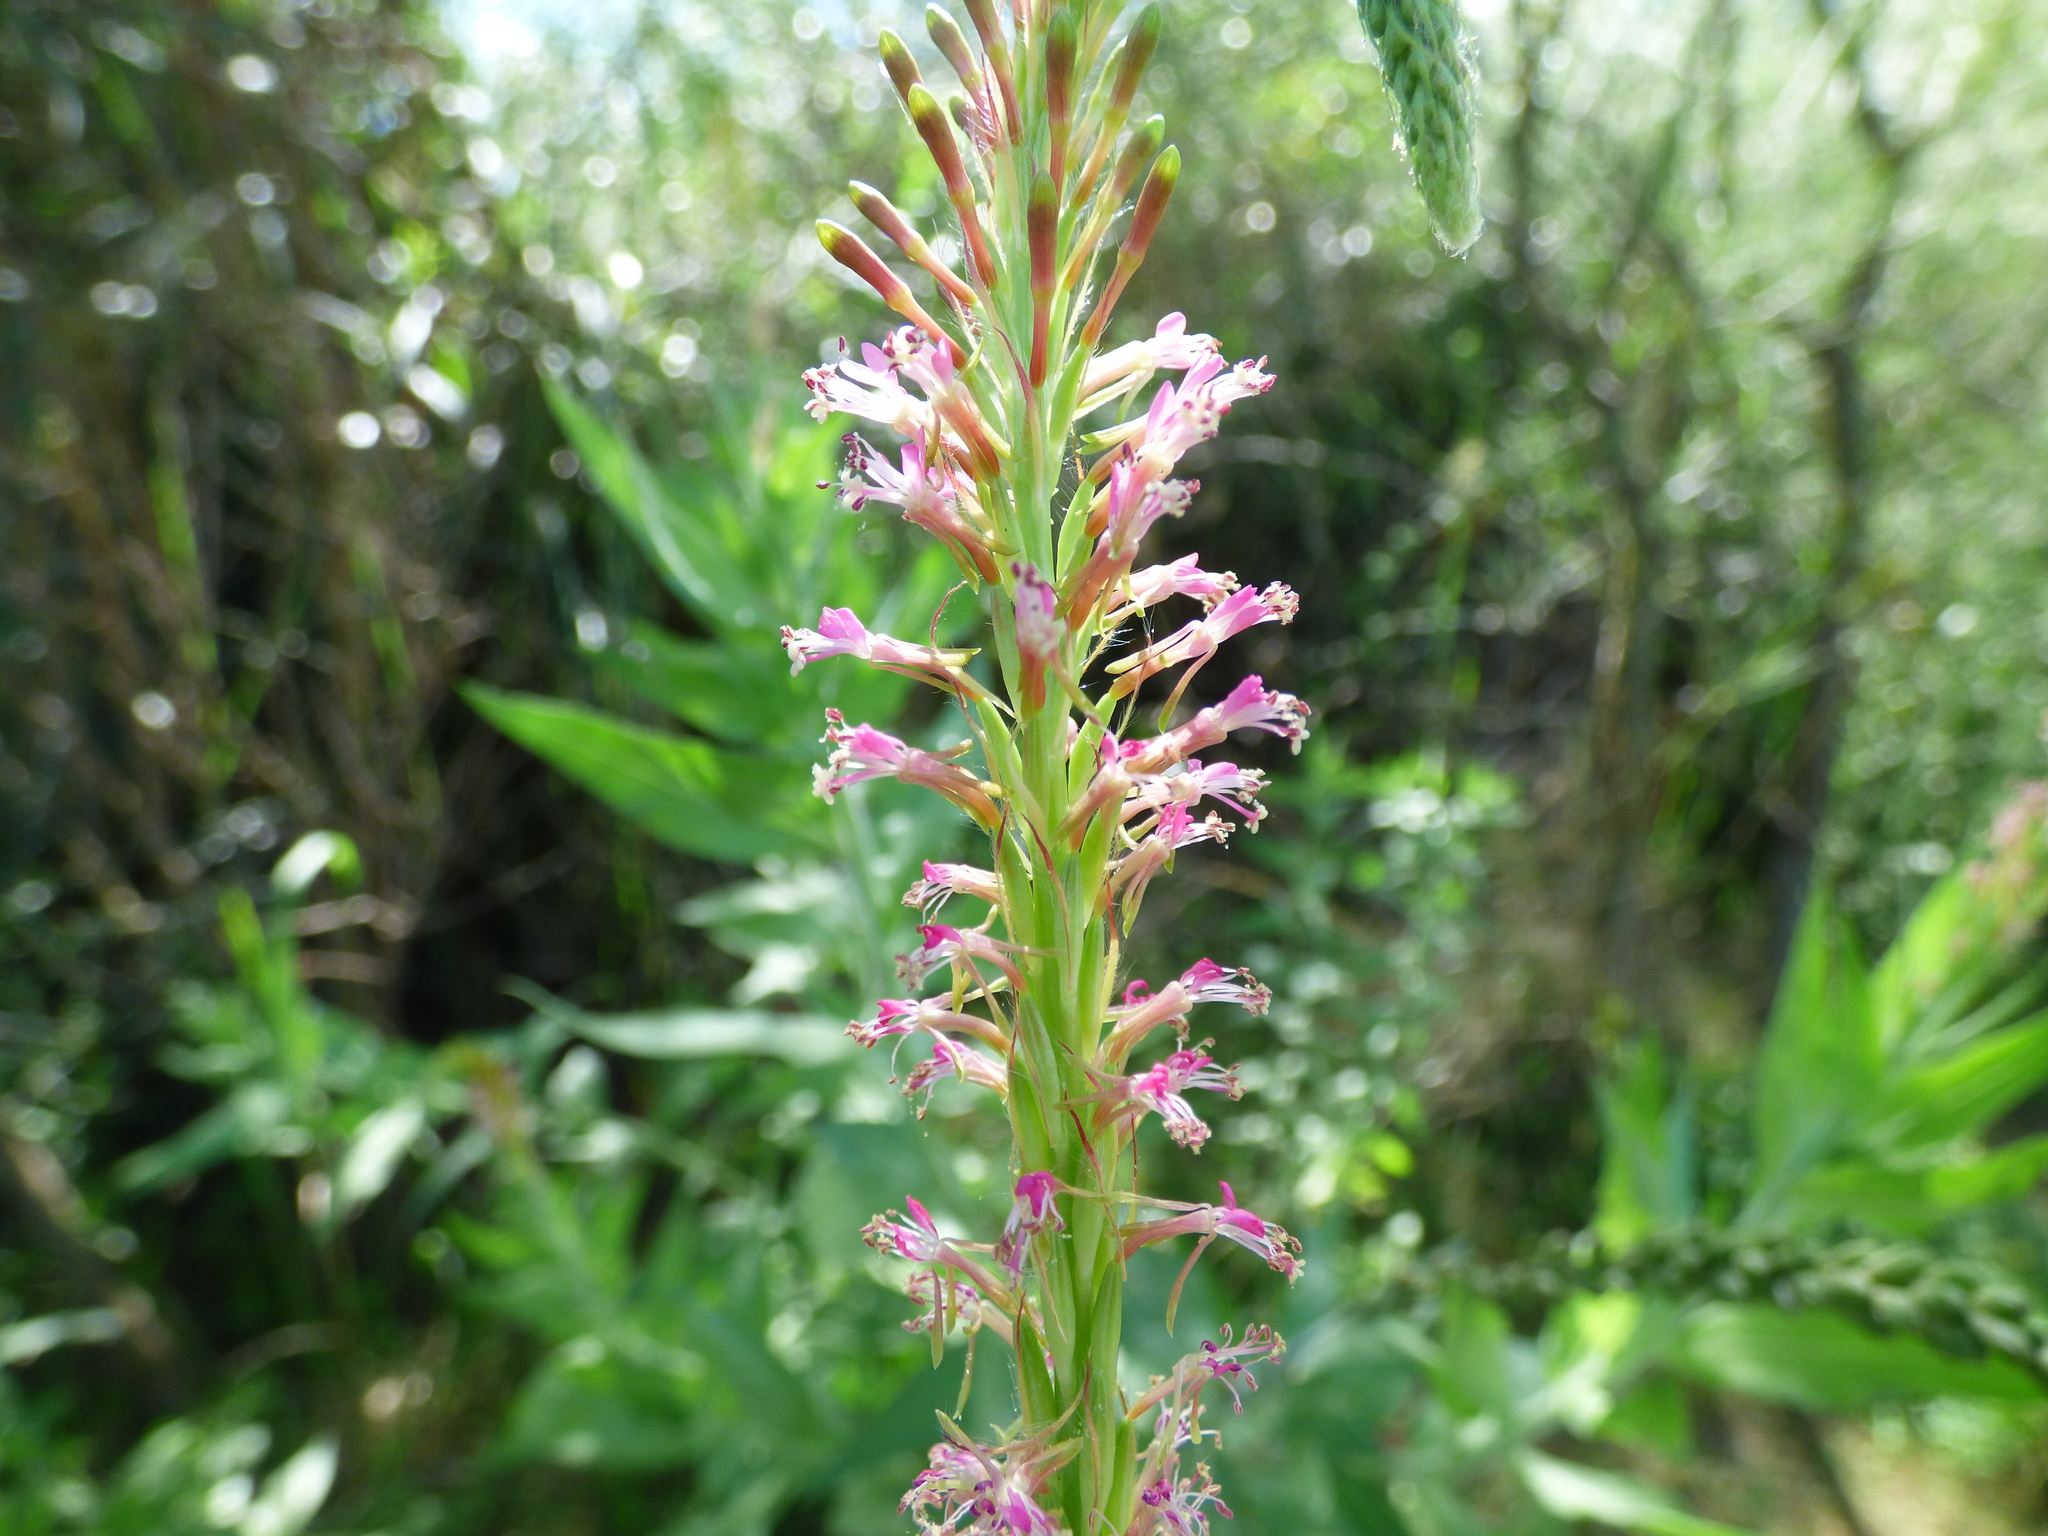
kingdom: Plantae
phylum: Tracheophyta
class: Magnoliopsida
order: Myrtales
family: Onagraceae
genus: Oenothera
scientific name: Oenothera curtiflora
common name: Velvetweed
